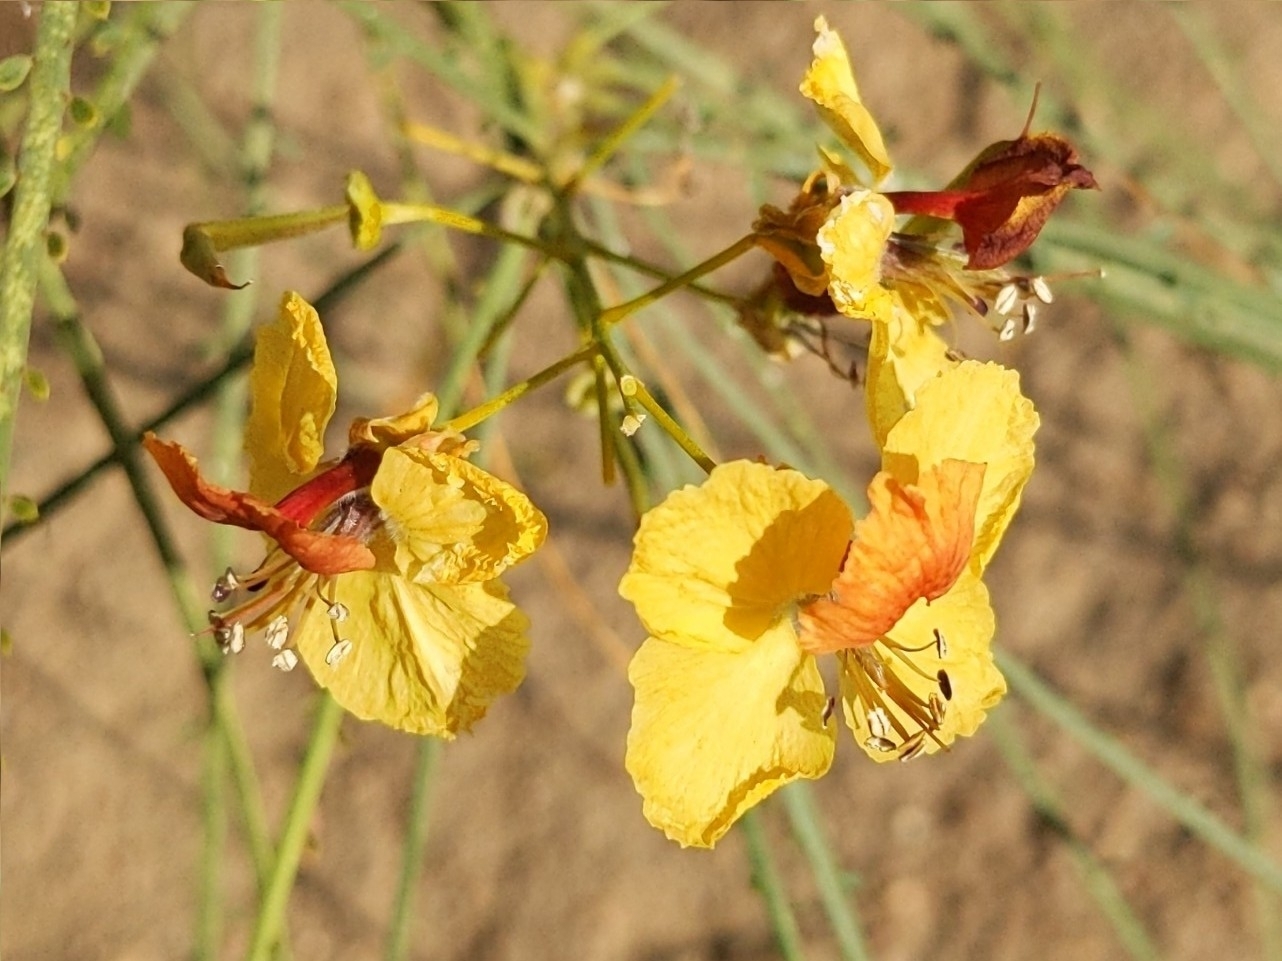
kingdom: Plantae
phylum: Tracheophyta
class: Magnoliopsida
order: Fabales
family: Fabaceae
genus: Parkinsonia
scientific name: Parkinsonia aculeata
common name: Jerusalem thorn
